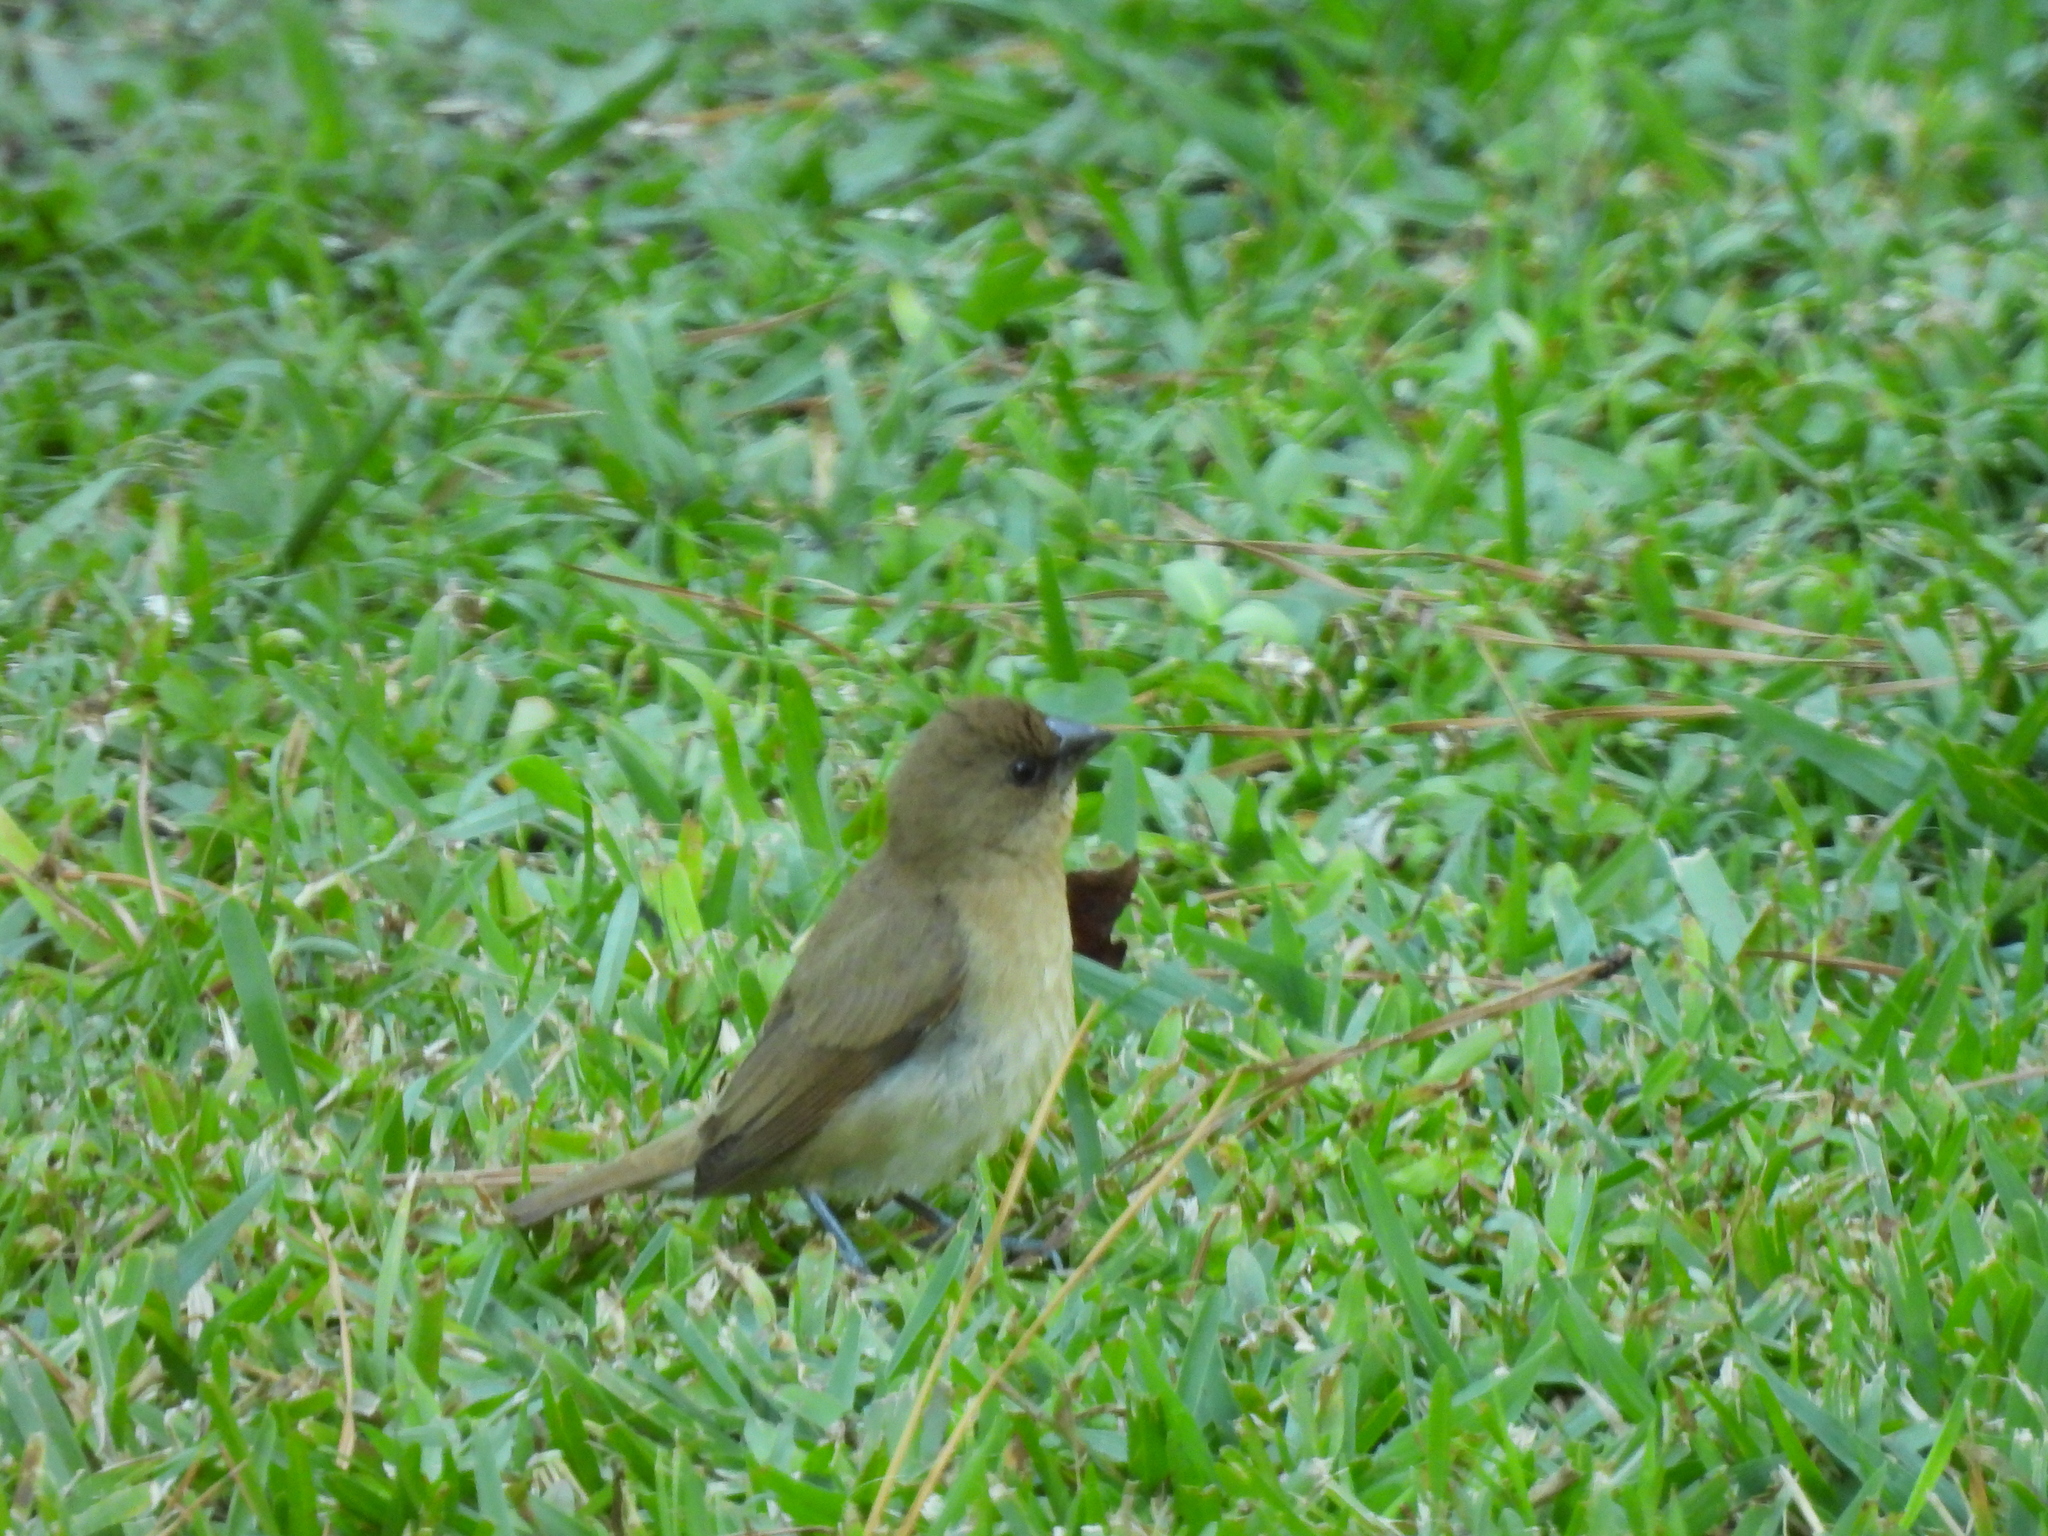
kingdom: Animalia
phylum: Chordata
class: Aves
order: Passeriformes
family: Estrildidae
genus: Lonchura
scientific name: Lonchura punctulata
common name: Scaly-breasted munia
